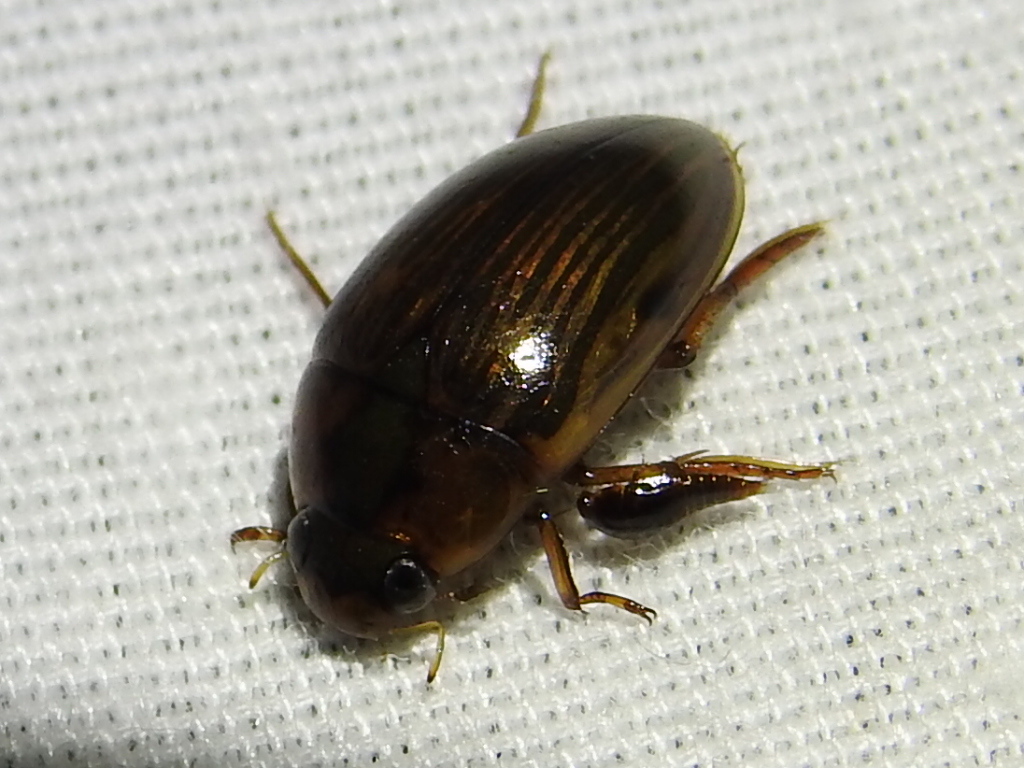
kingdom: Animalia
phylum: Arthropoda
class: Insecta
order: Coleoptera
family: Hydrophilidae
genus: Tropisternus
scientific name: Tropisternus collaris
